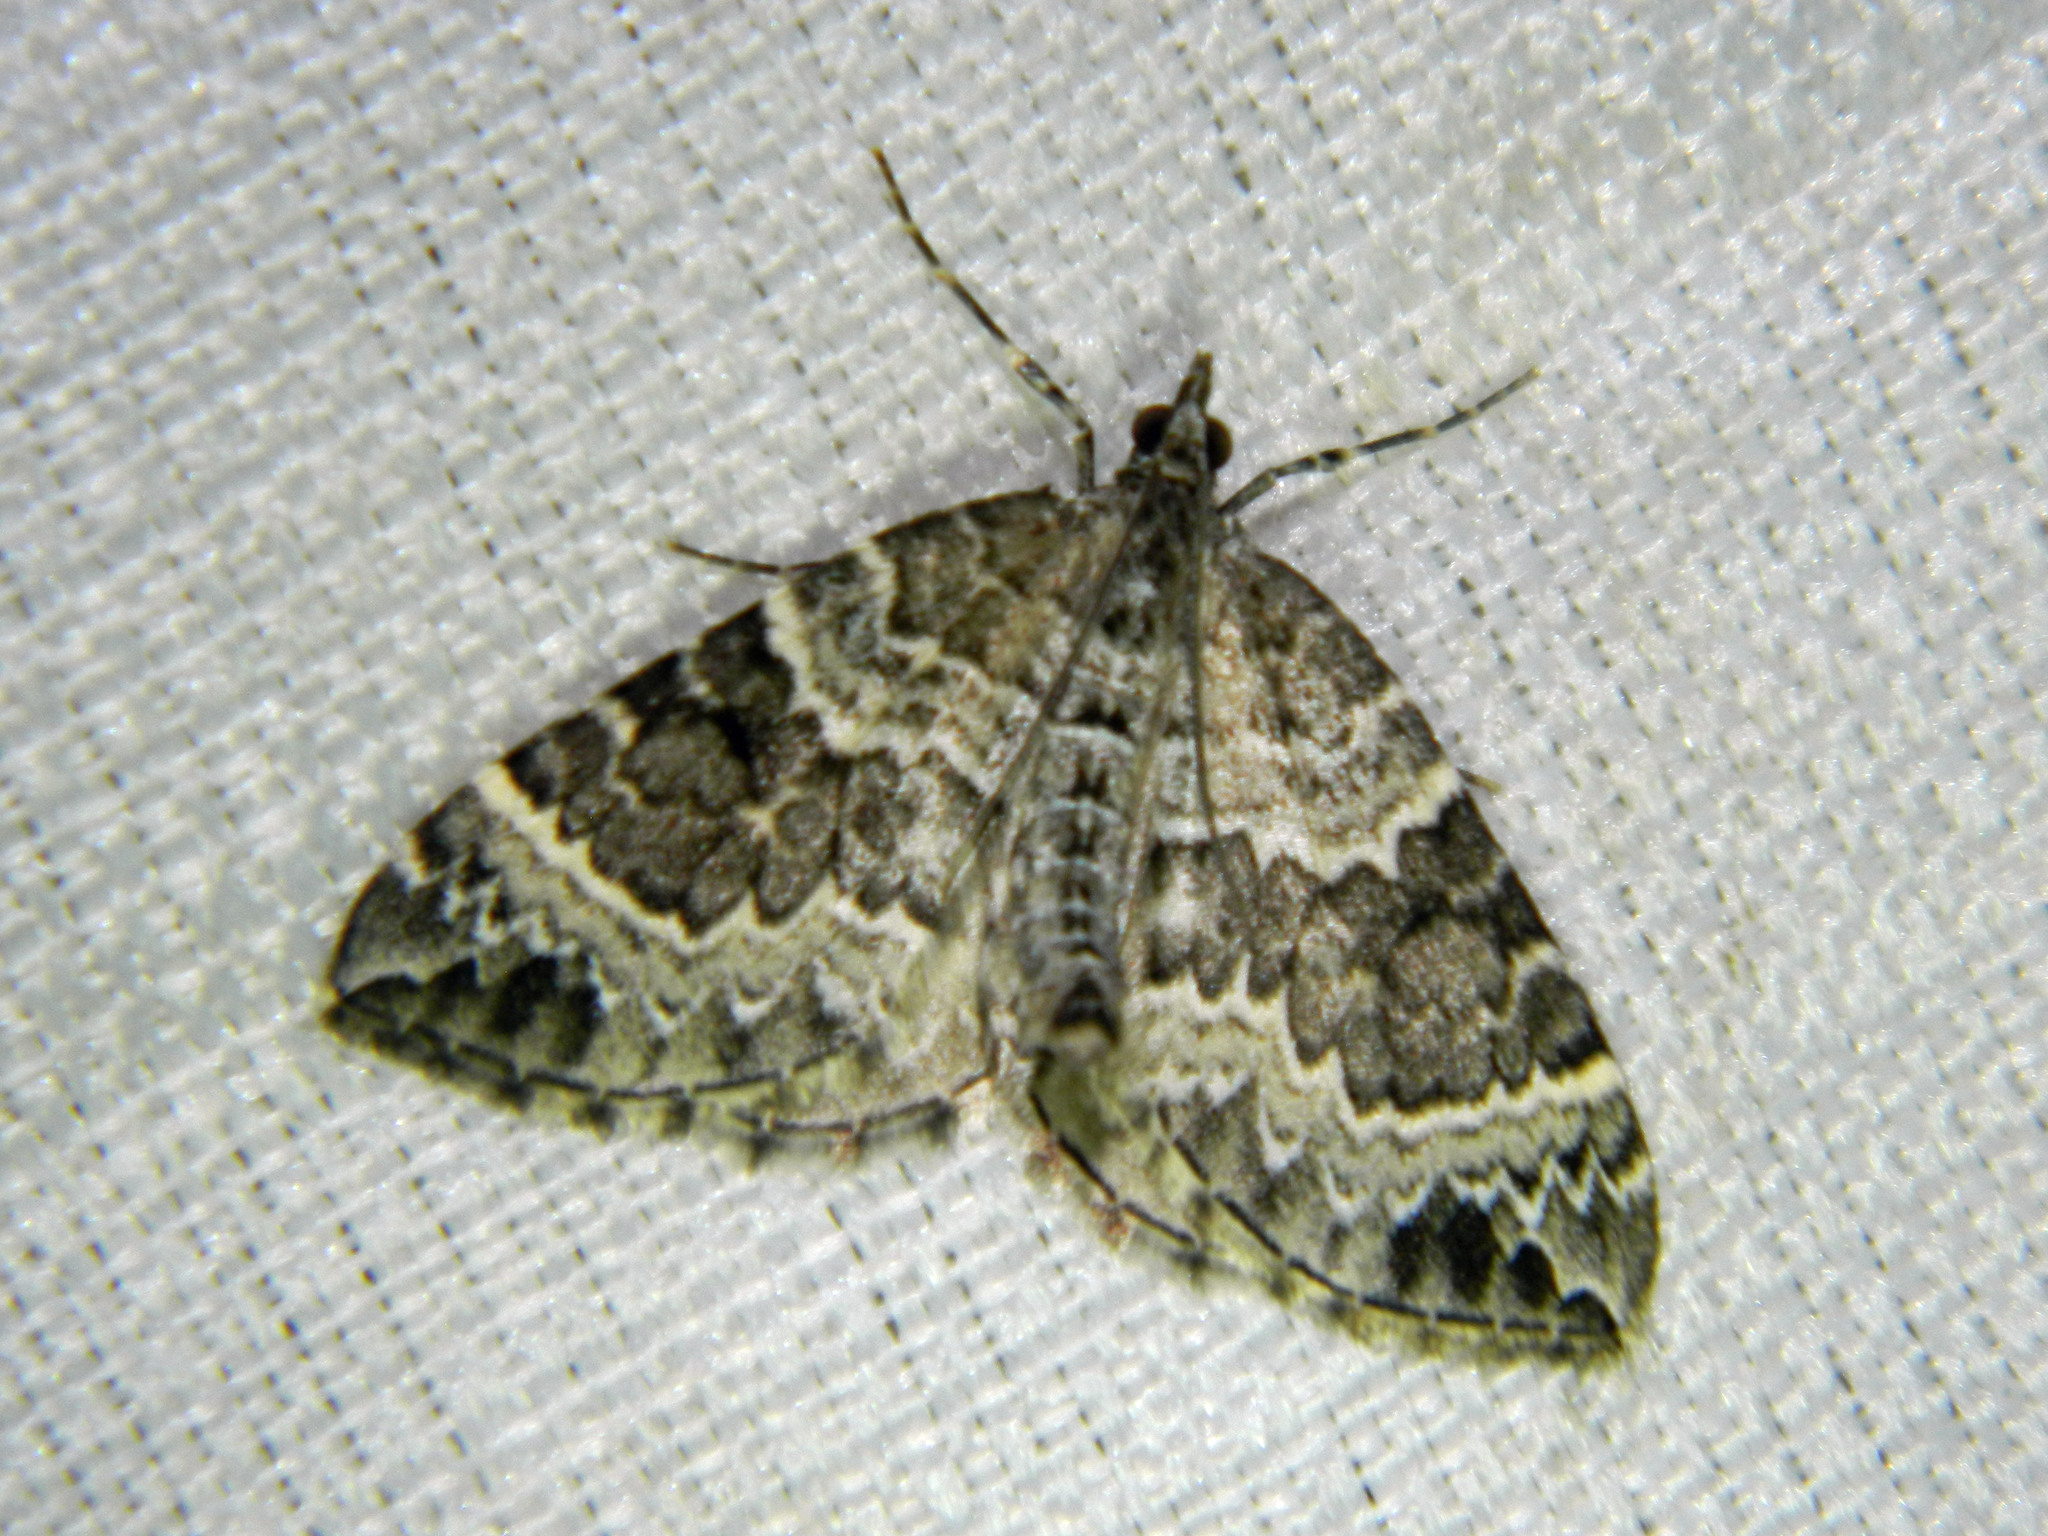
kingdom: Animalia
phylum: Arthropoda
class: Insecta
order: Lepidoptera
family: Geometridae
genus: Eulithis
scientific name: Eulithis explanata
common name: White eulithis
